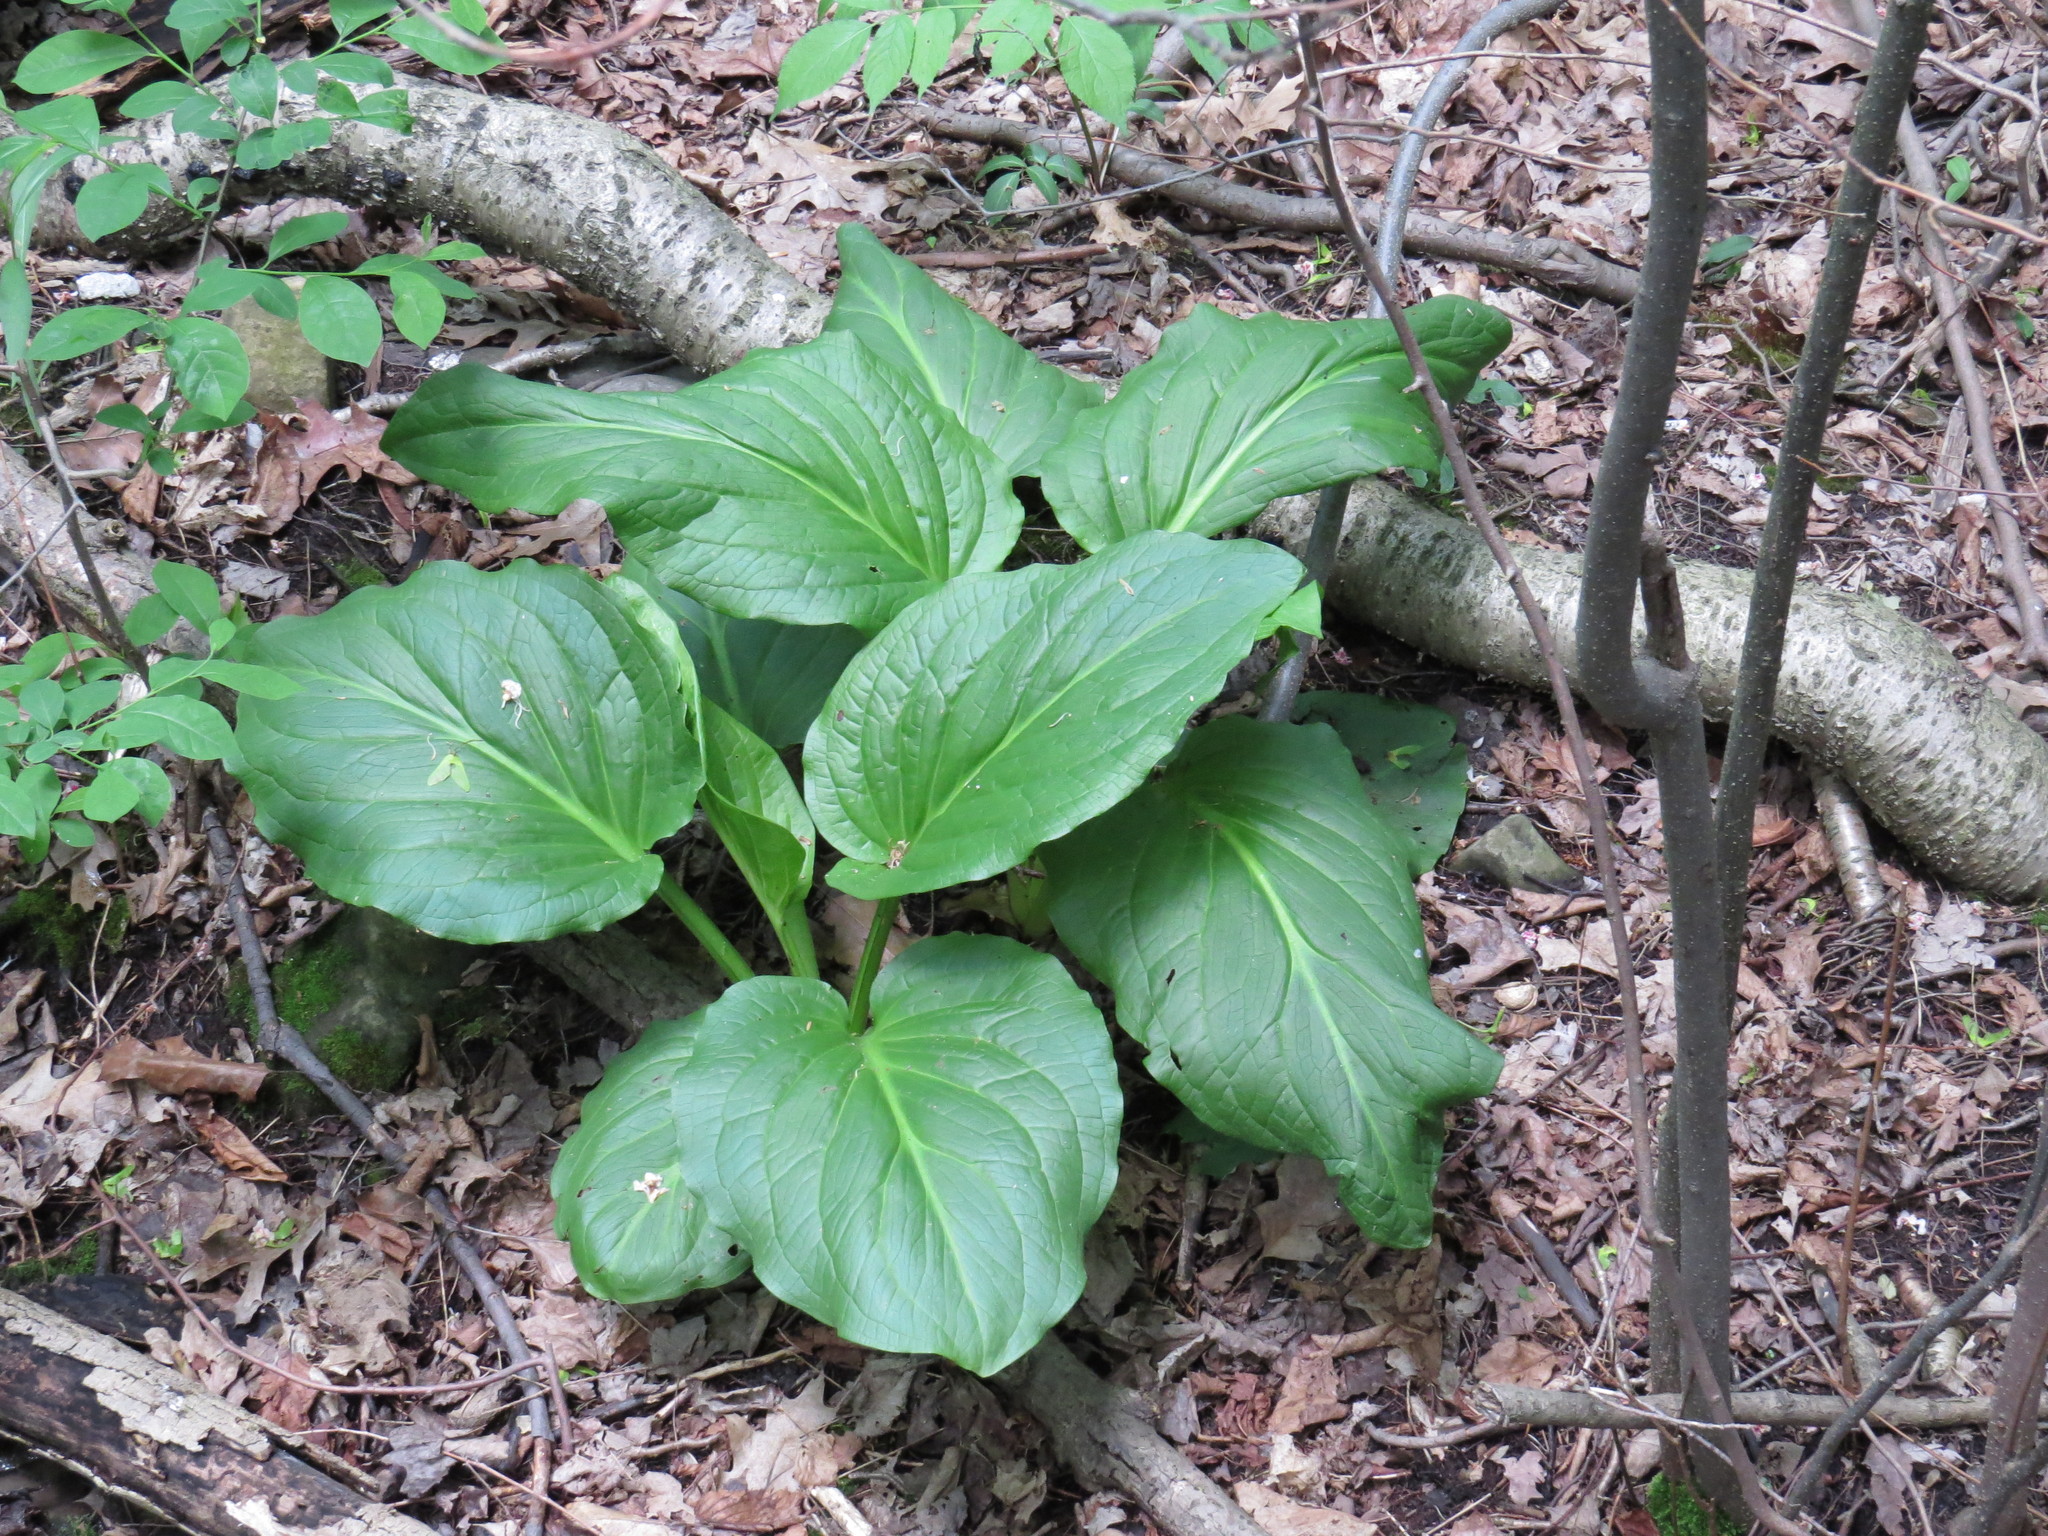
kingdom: Plantae
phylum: Tracheophyta
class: Liliopsida
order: Alismatales
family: Araceae
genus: Symplocarpus
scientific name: Symplocarpus foetidus
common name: Eastern skunk cabbage
